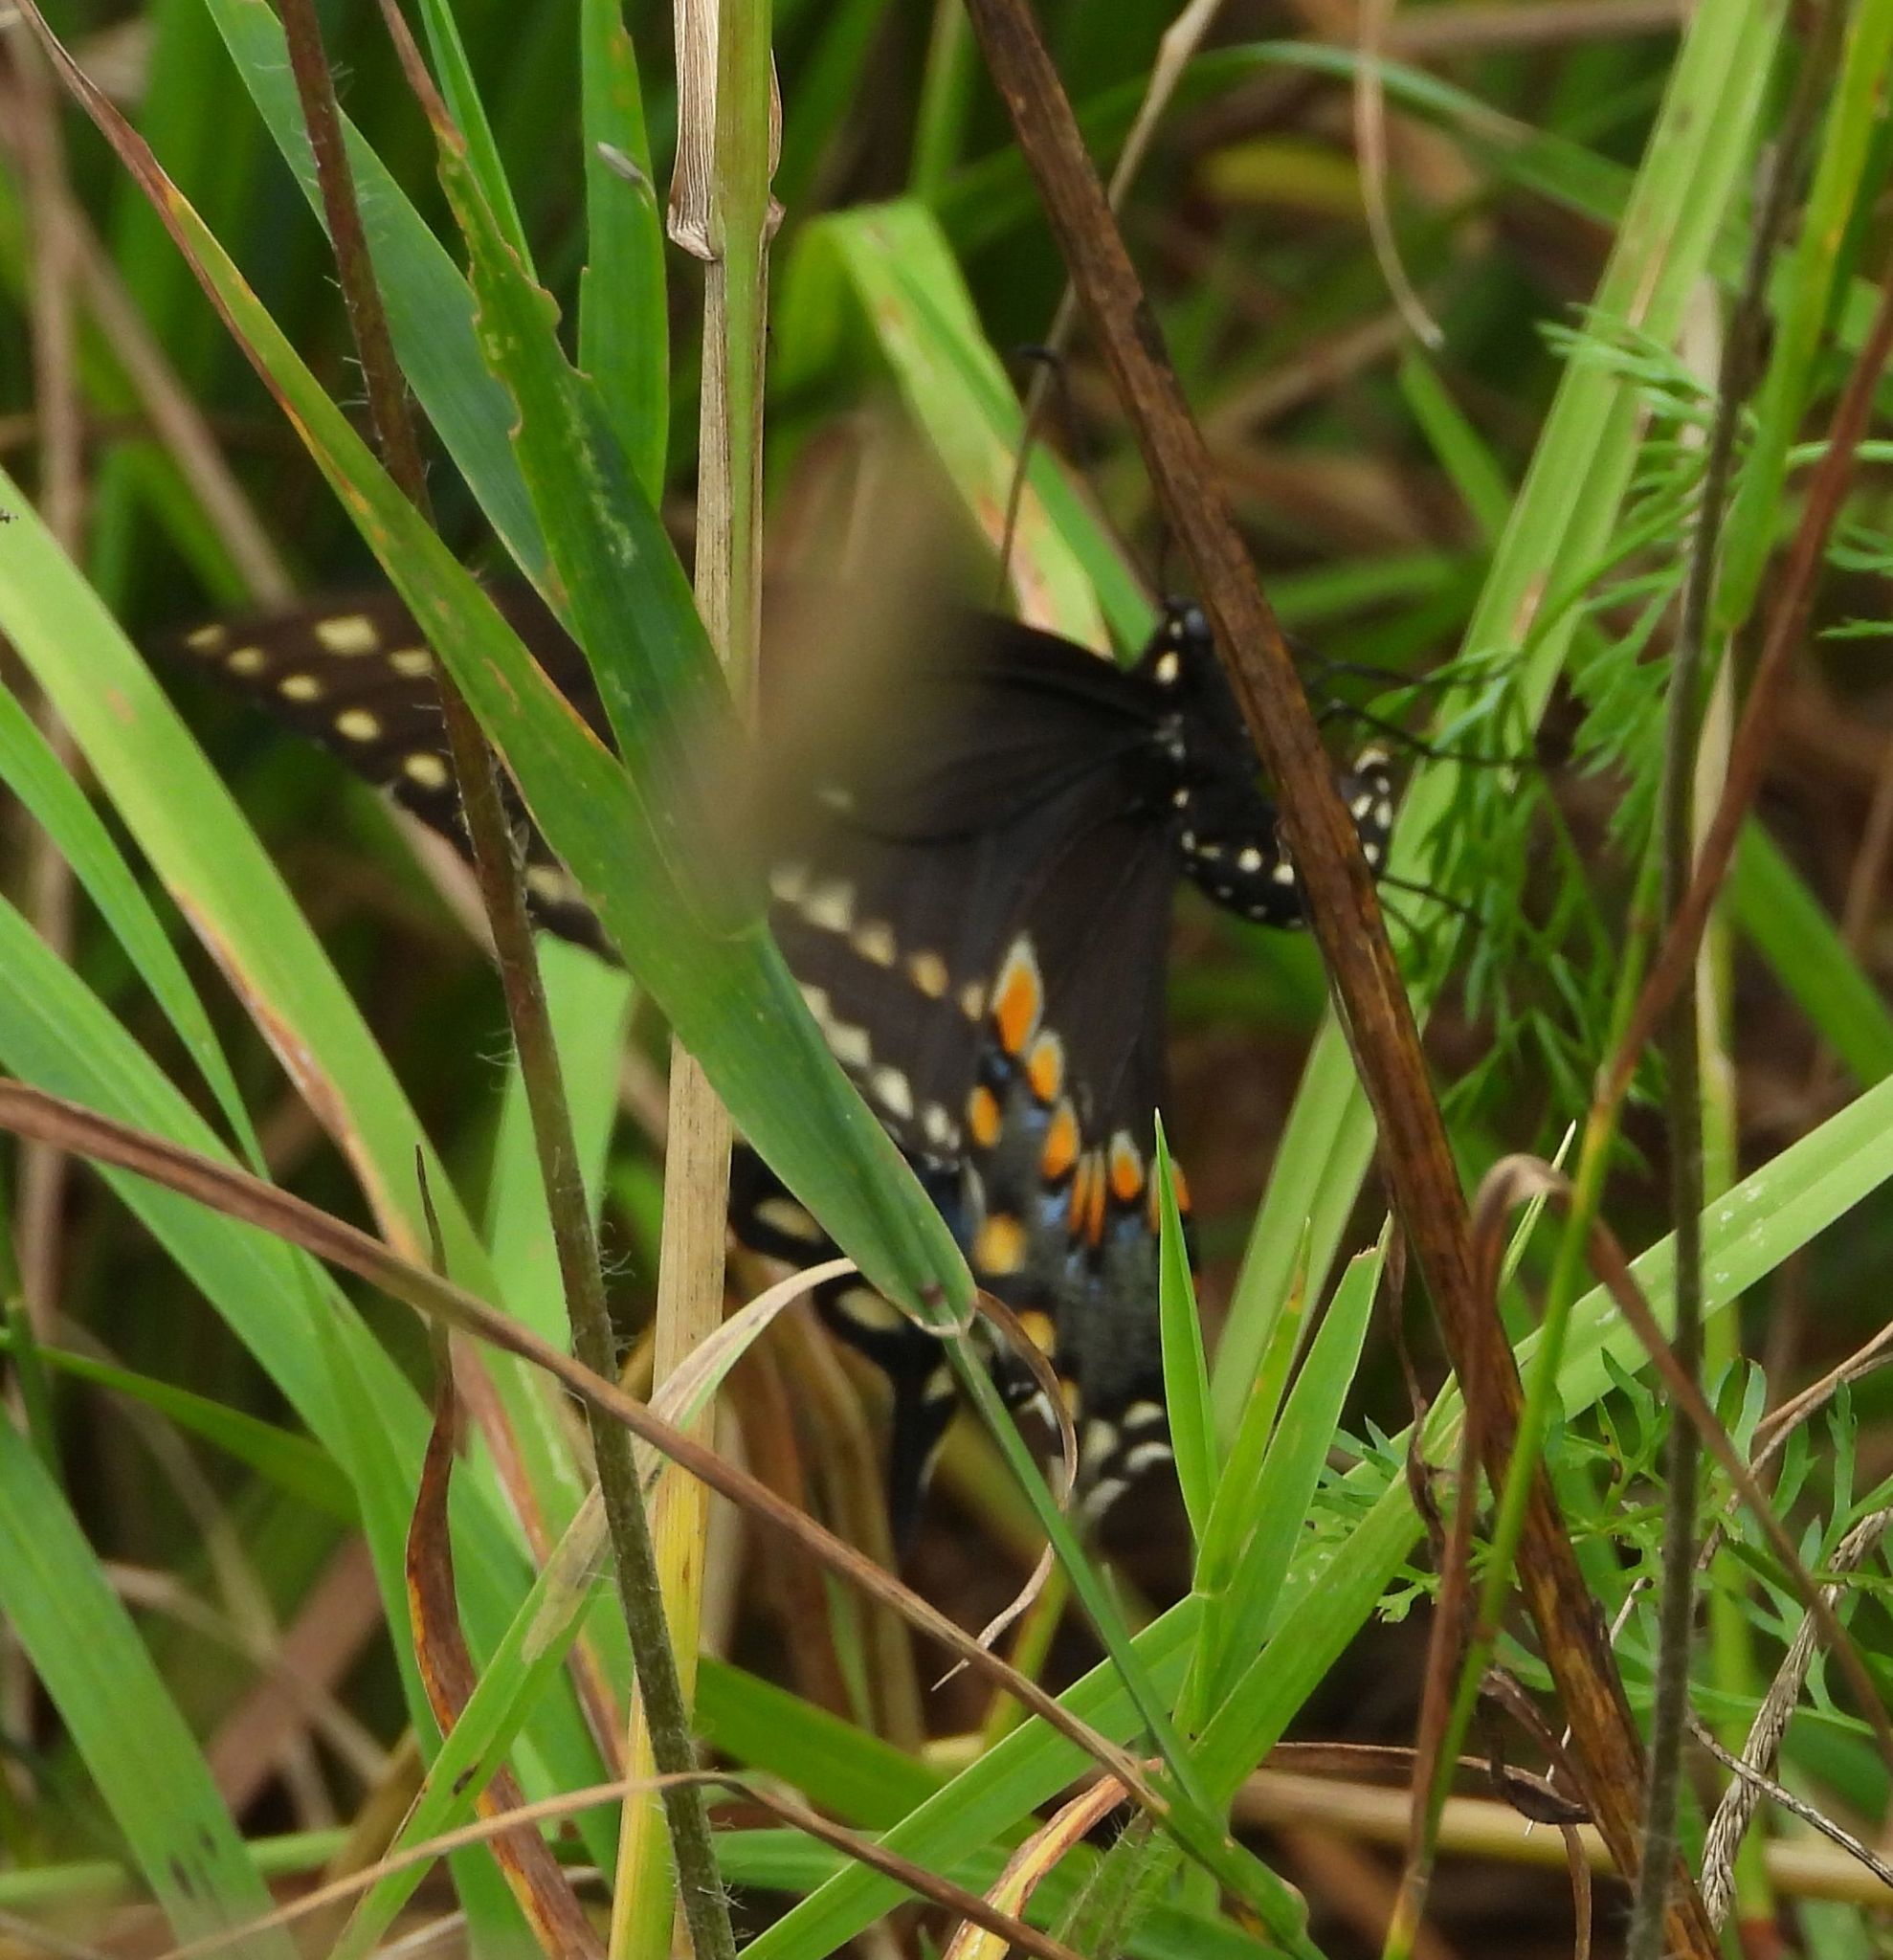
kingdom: Animalia
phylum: Arthropoda
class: Insecta
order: Lepidoptera
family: Papilionidae
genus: Papilio
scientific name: Papilio polyxenes
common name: Black swallowtail
